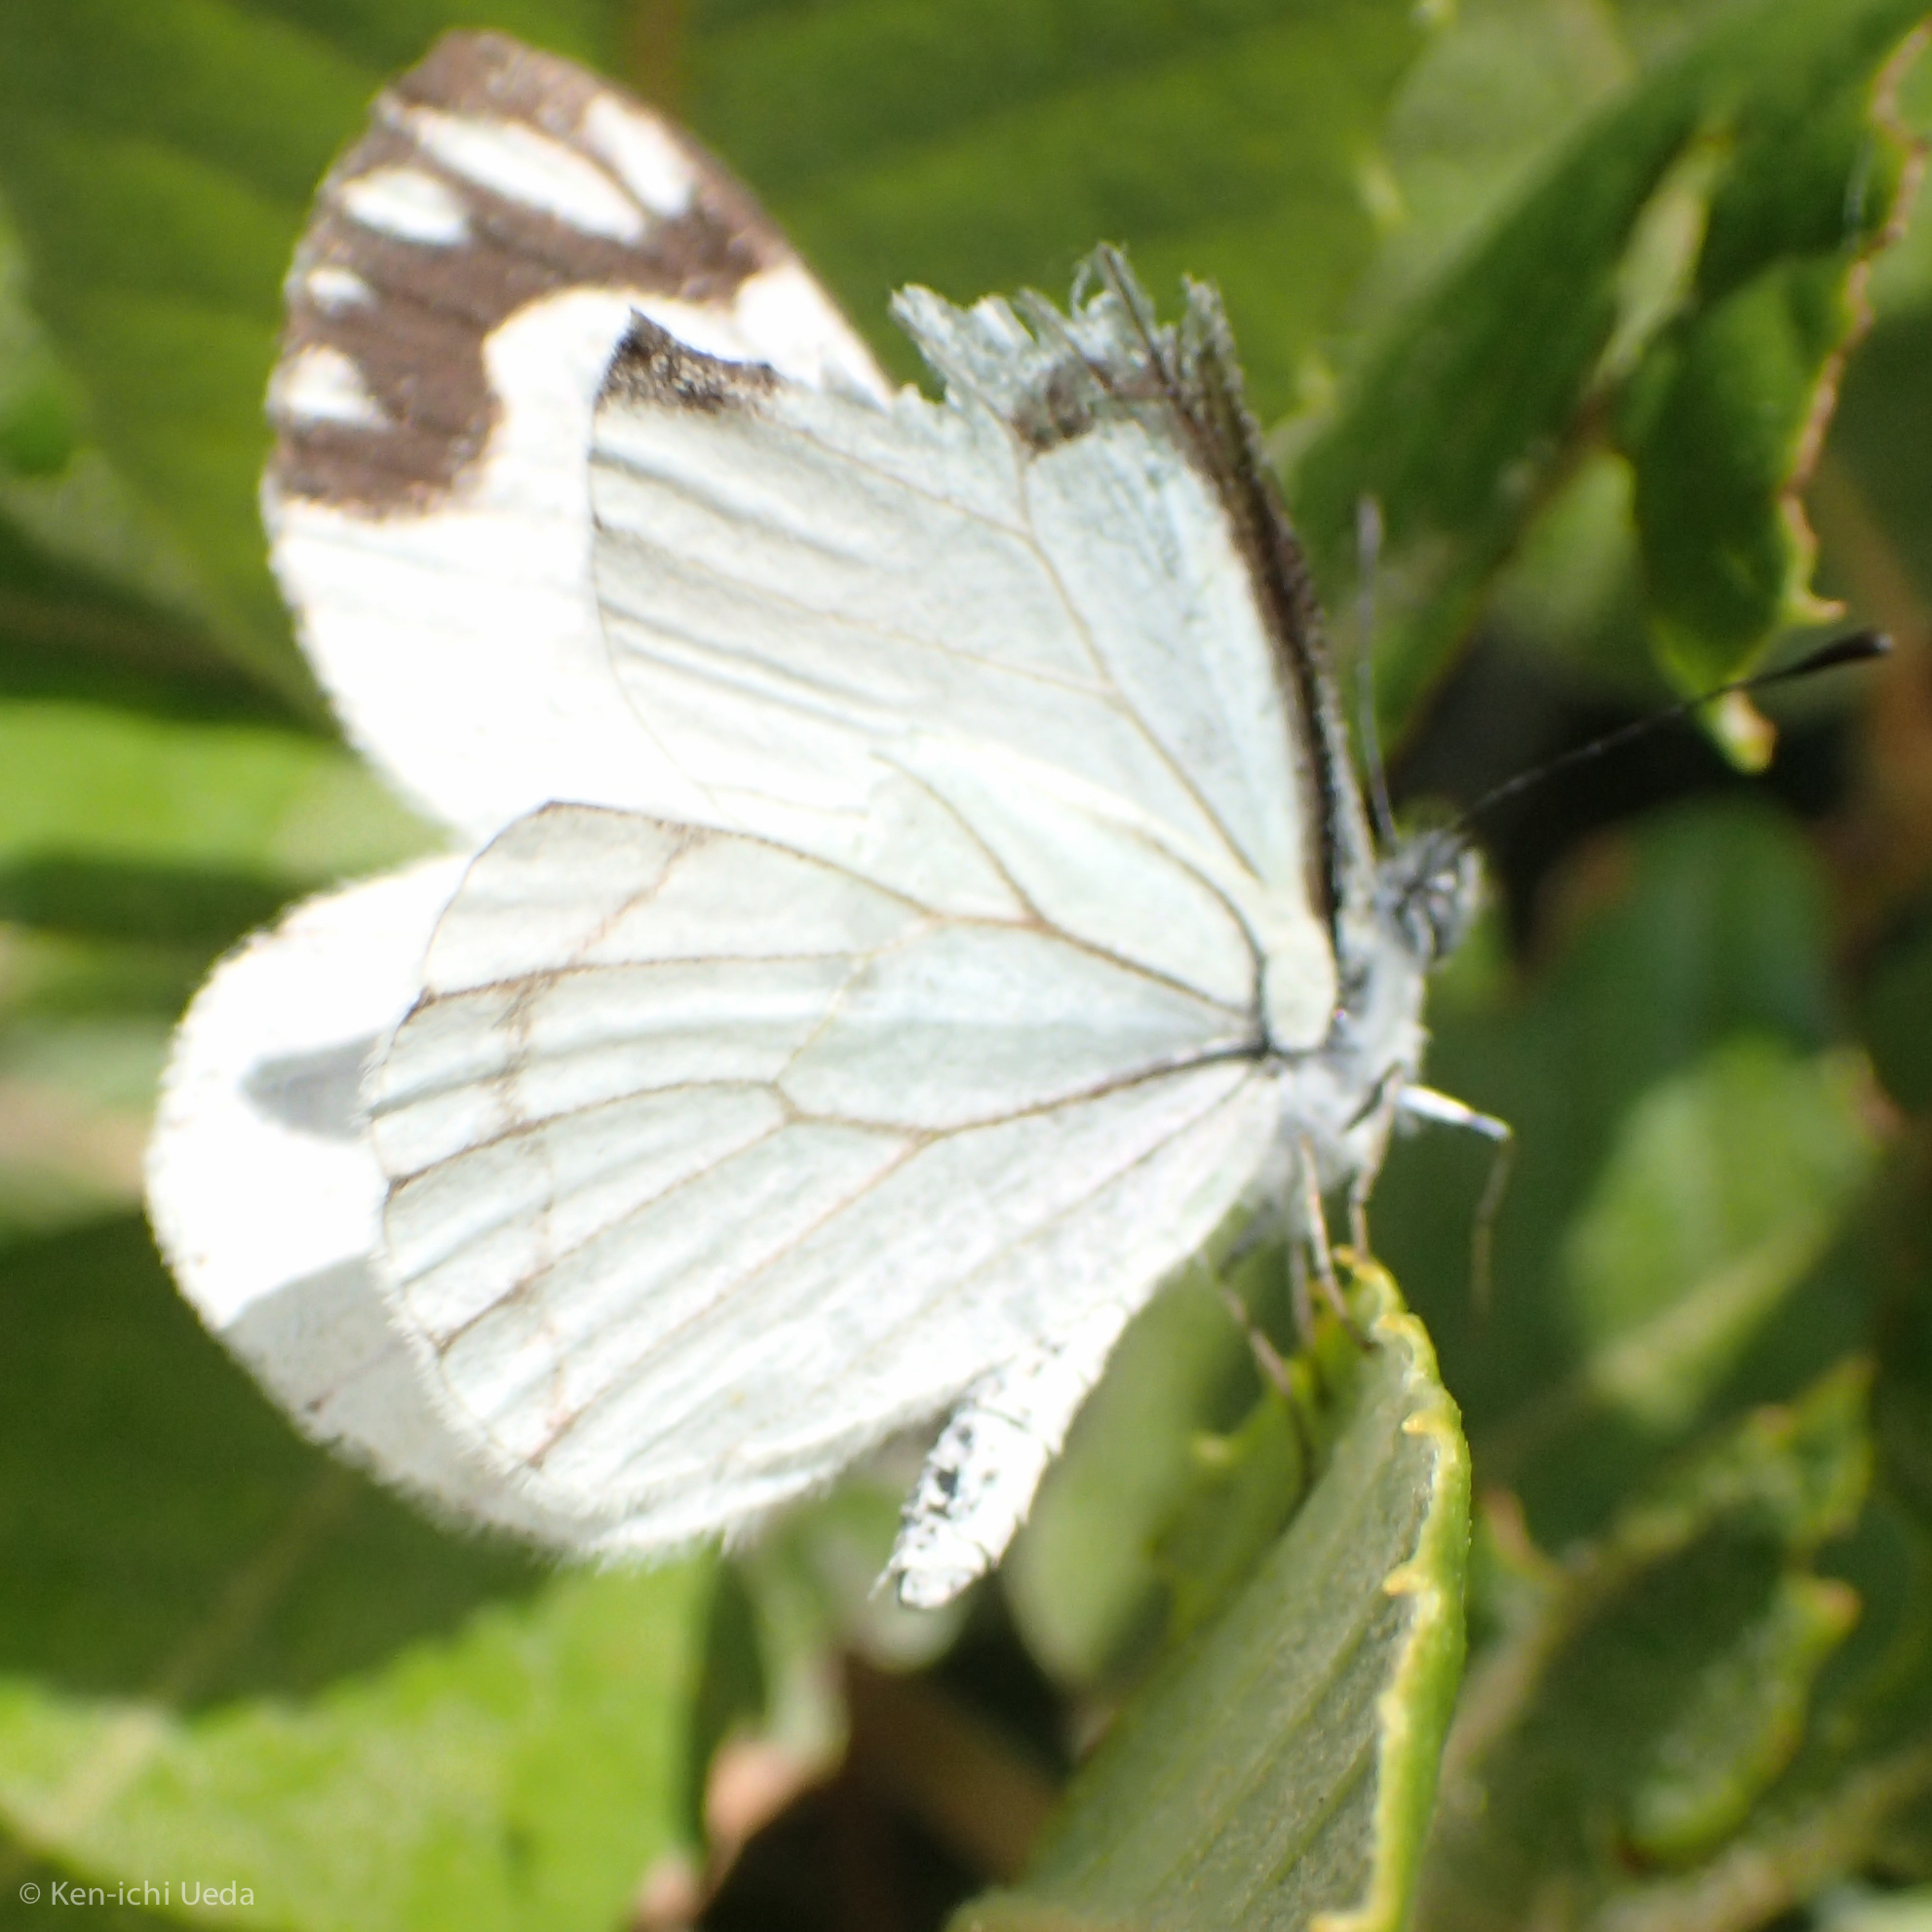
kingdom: Animalia
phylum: Arthropoda
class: Insecta
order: Lepidoptera
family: Pieridae
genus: Neophasia
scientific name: Neophasia menapia
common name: Pine white
